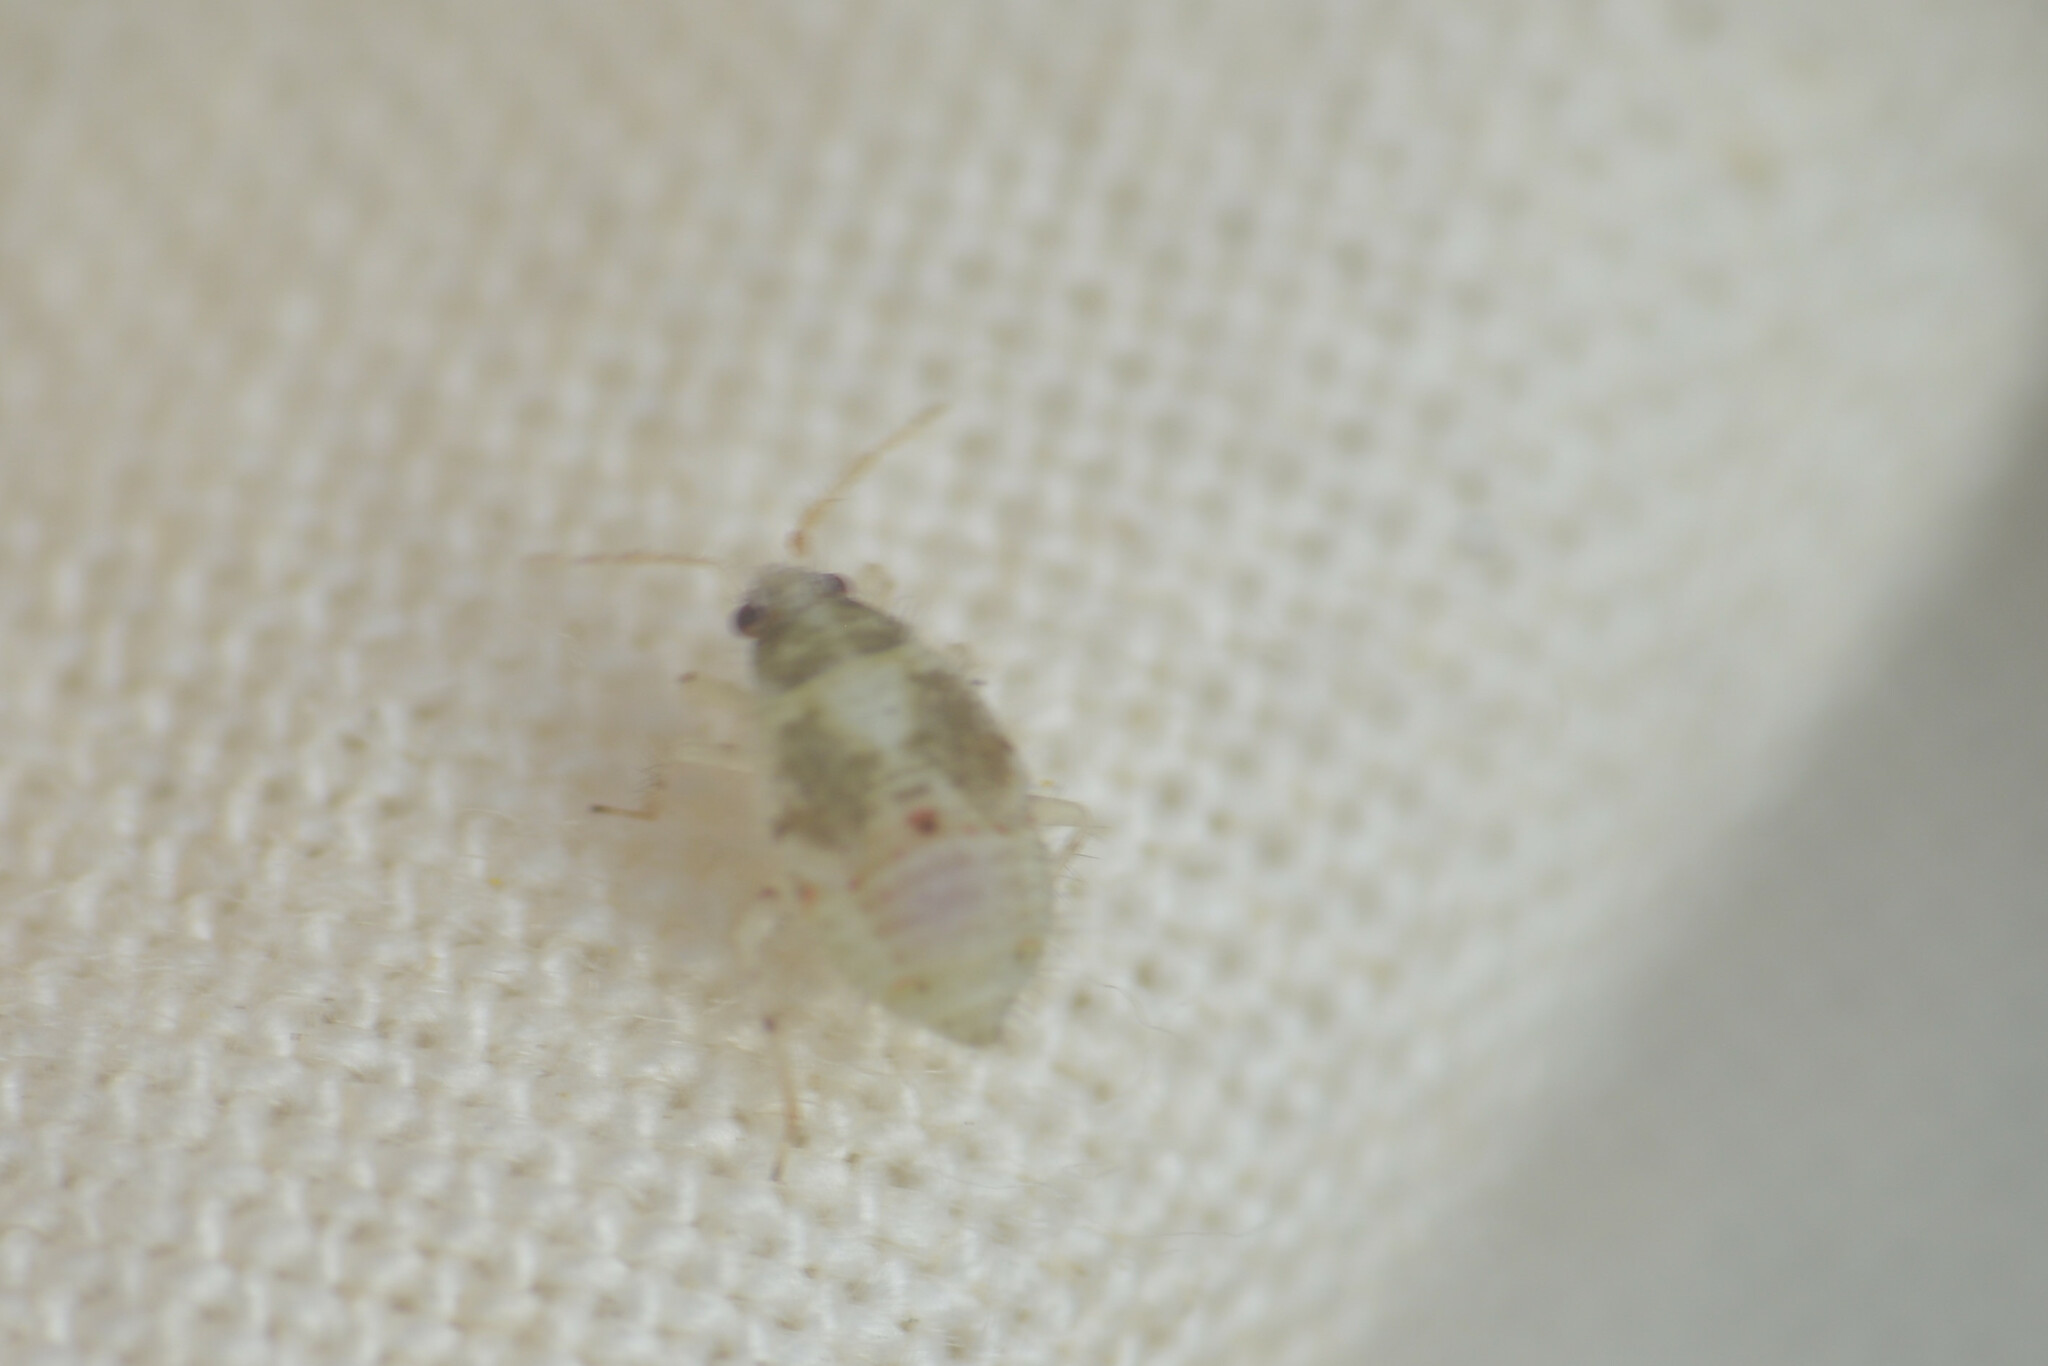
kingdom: Animalia
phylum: Arthropoda
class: Insecta
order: Hemiptera
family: Miridae
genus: Deraeocoris
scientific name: Deraeocoris lutescens
